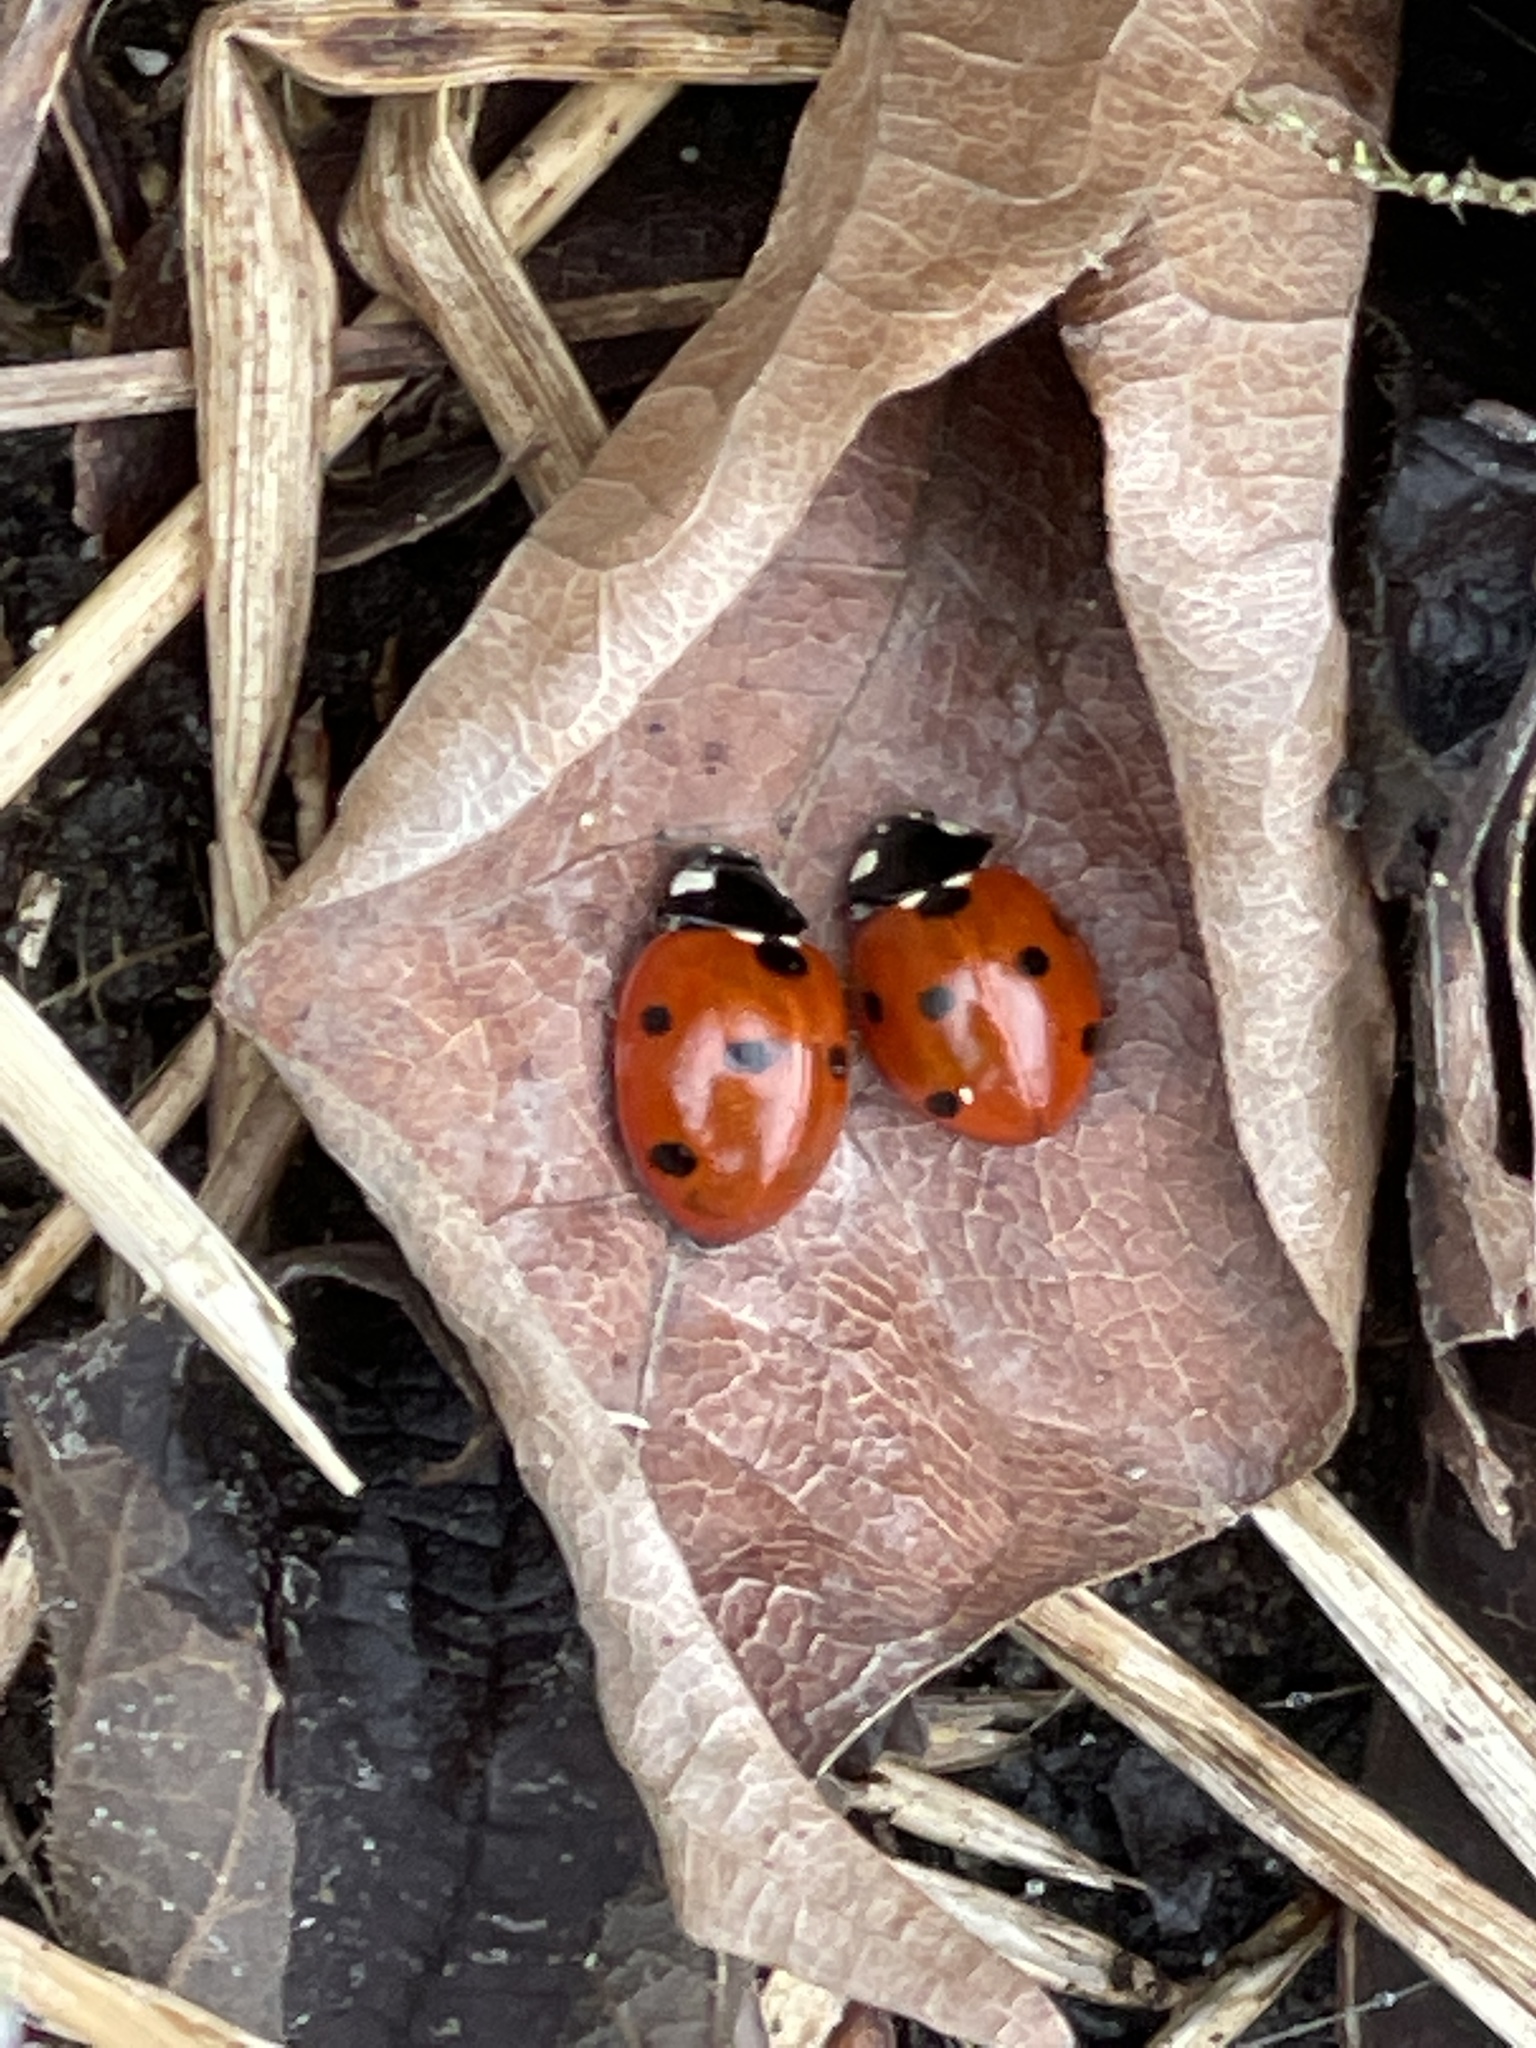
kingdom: Animalia
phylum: Arthropoda
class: Insecta
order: Coleoptera
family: Coccinellidae
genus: Coccinella
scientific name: Coccinella septempunctata
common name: Sevenspotted lady beetle
